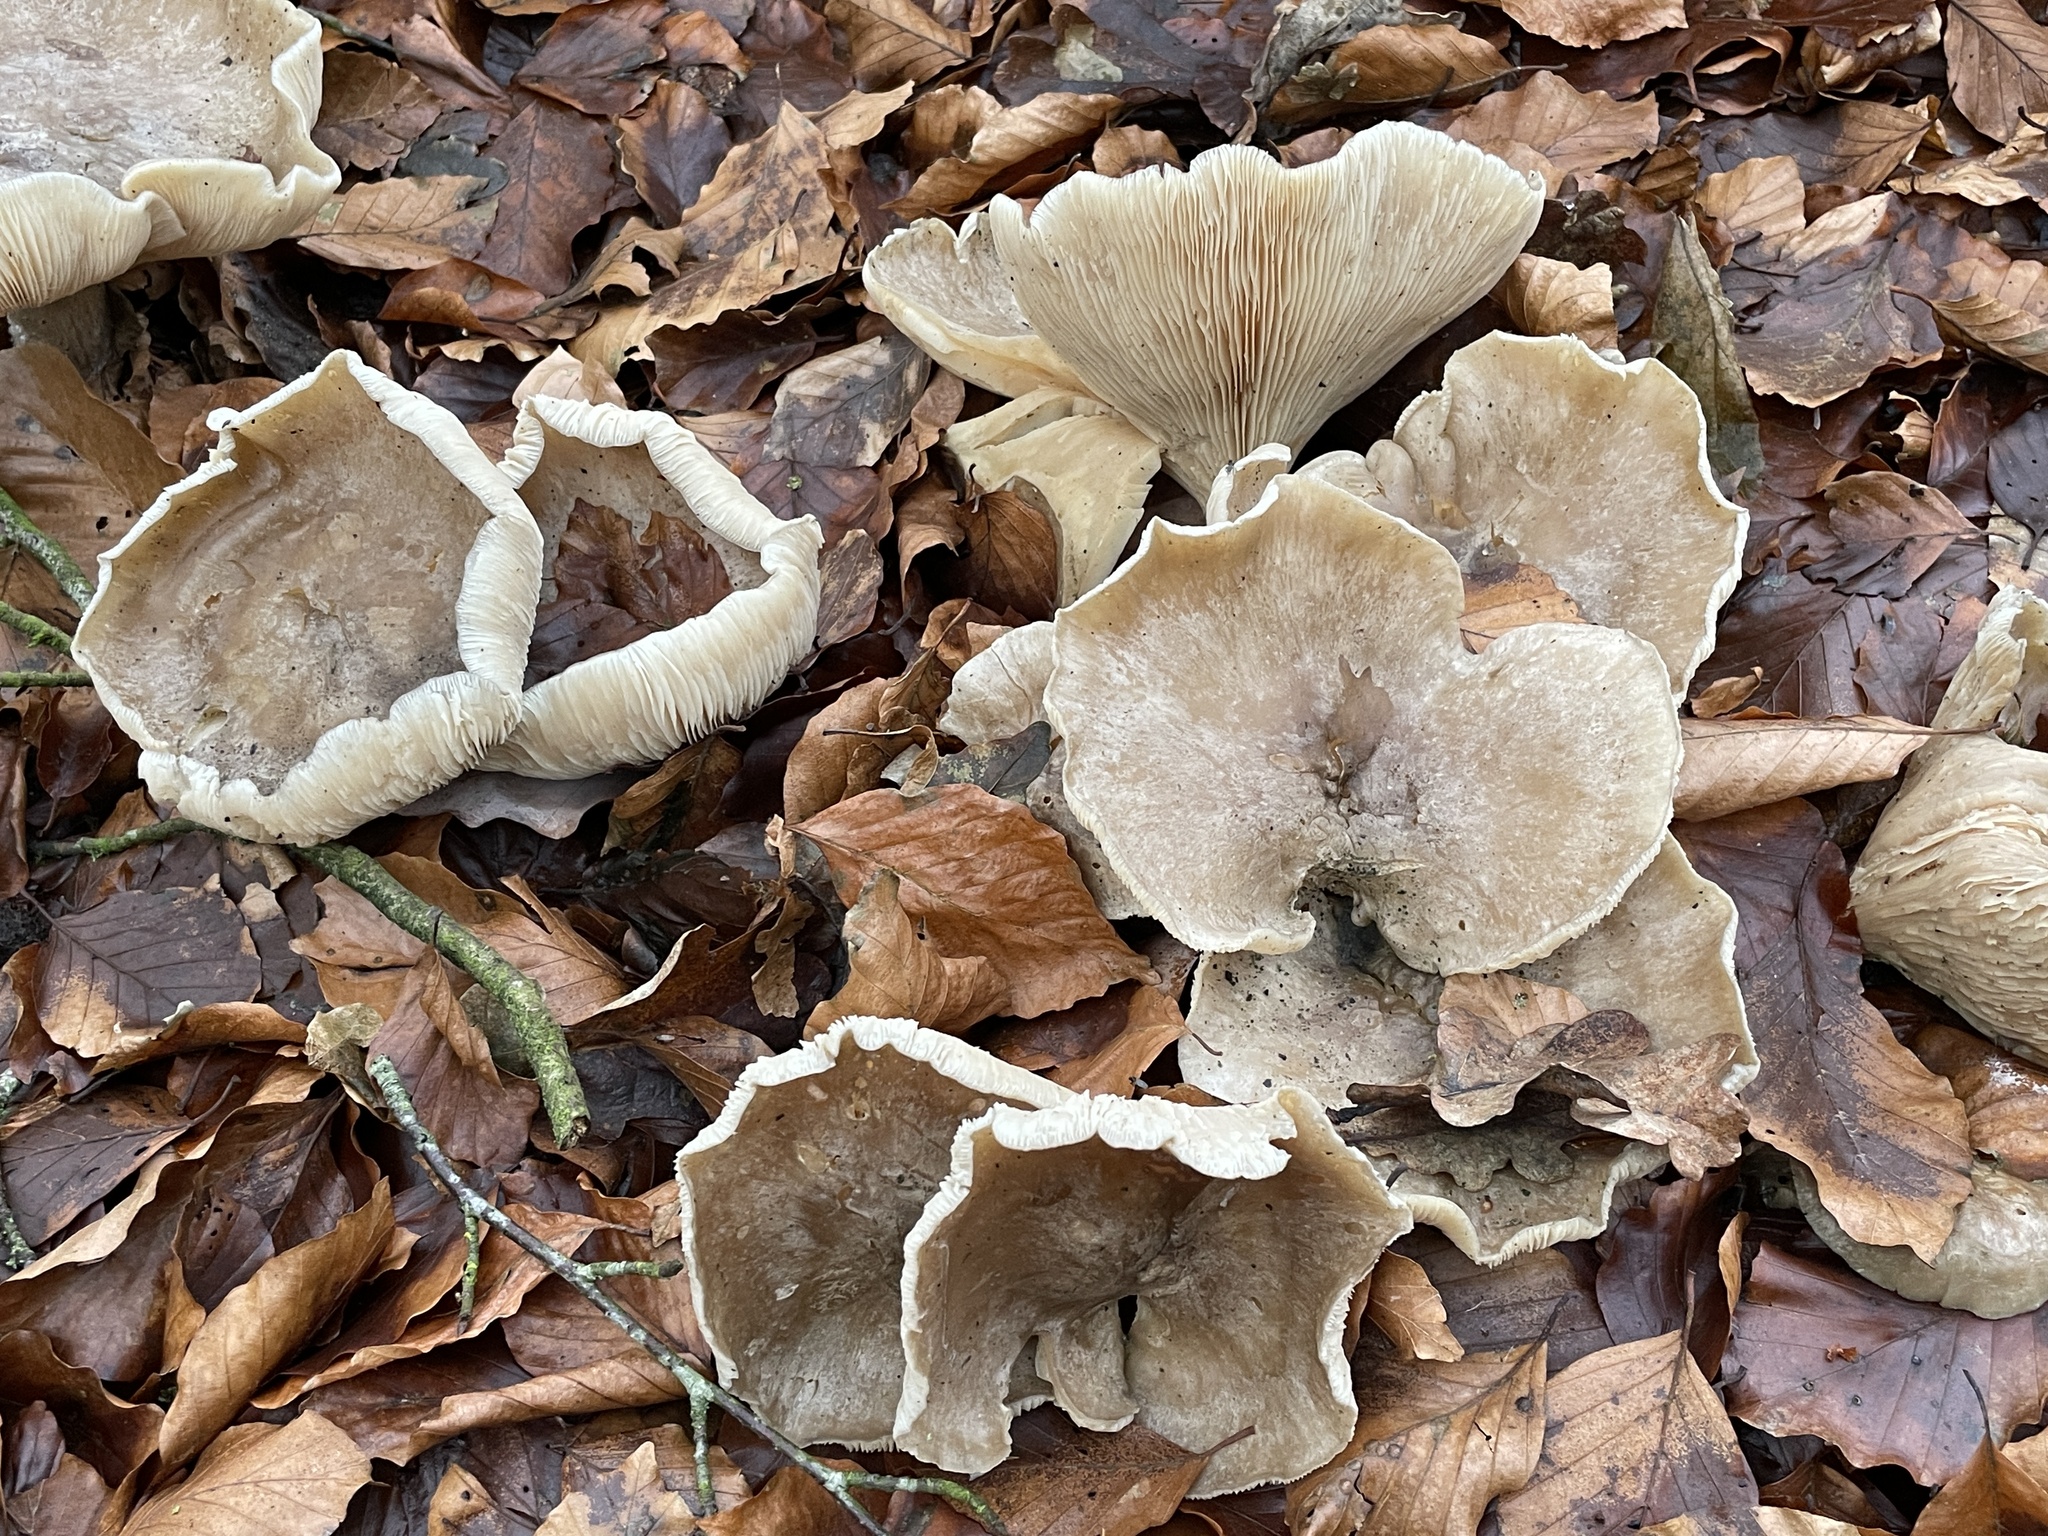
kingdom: Fungi
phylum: Basidiomycota
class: Agaricomycetes
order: Agaricales
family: Tricholomataceae
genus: Clitocybe
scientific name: Clitocybe nebularis
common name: Clouded agaric
